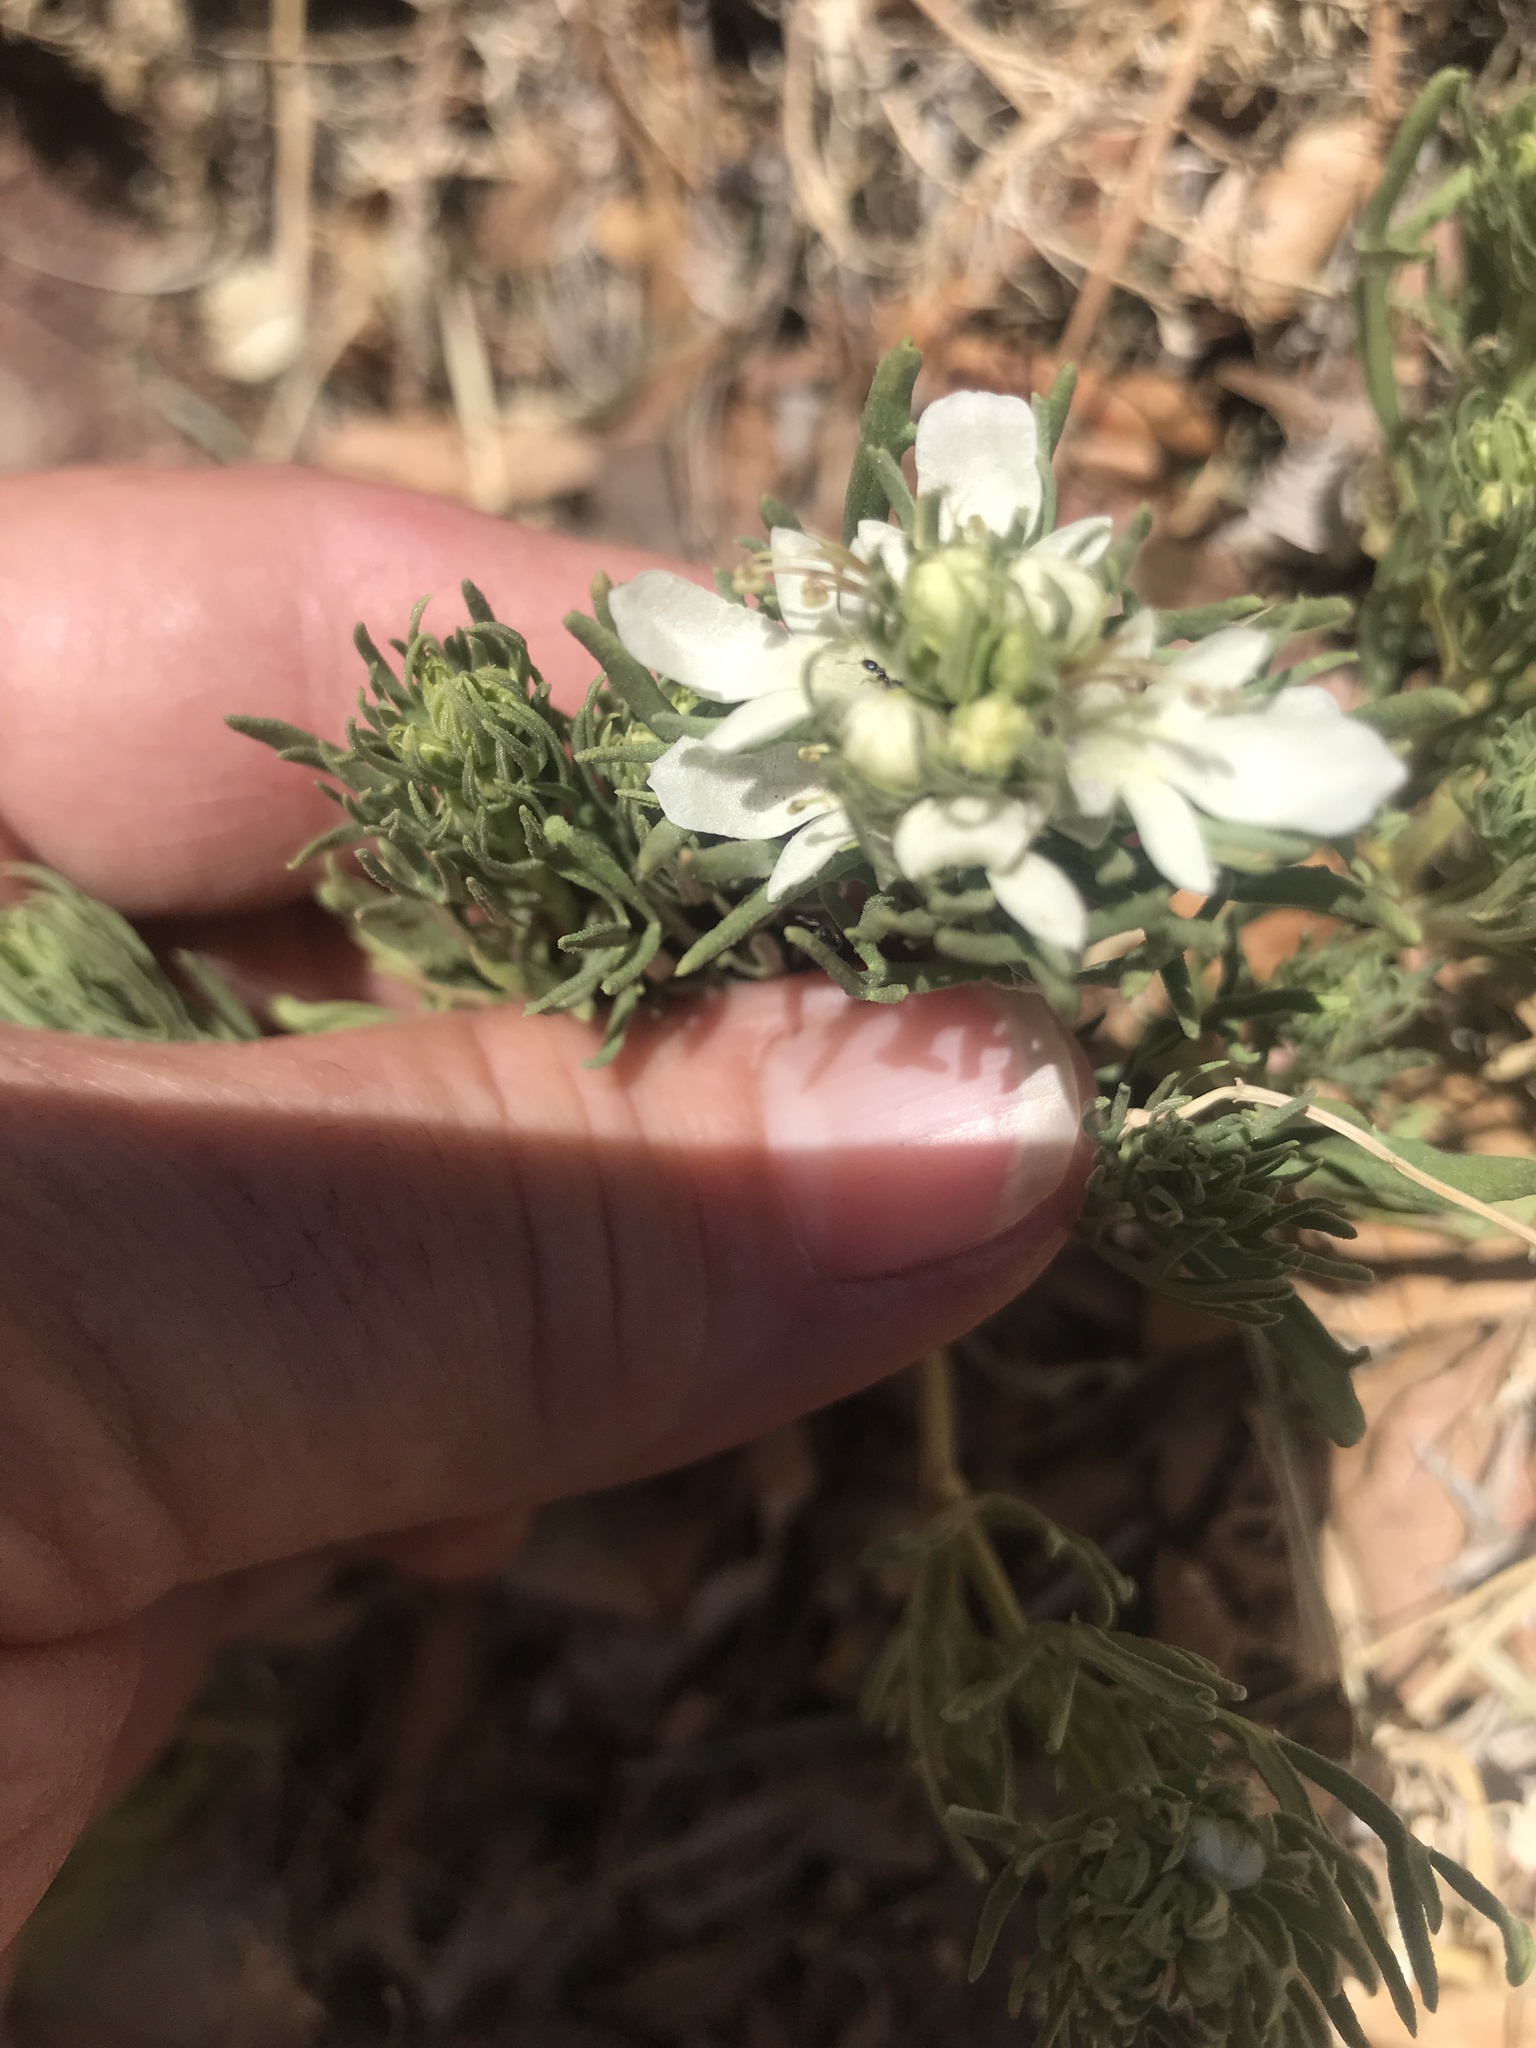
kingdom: Plantae
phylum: Tracheophyta
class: Magnoliopsida
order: Lamiales
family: Lamiaceae
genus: Teucrium
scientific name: Teucrium laciniatum
